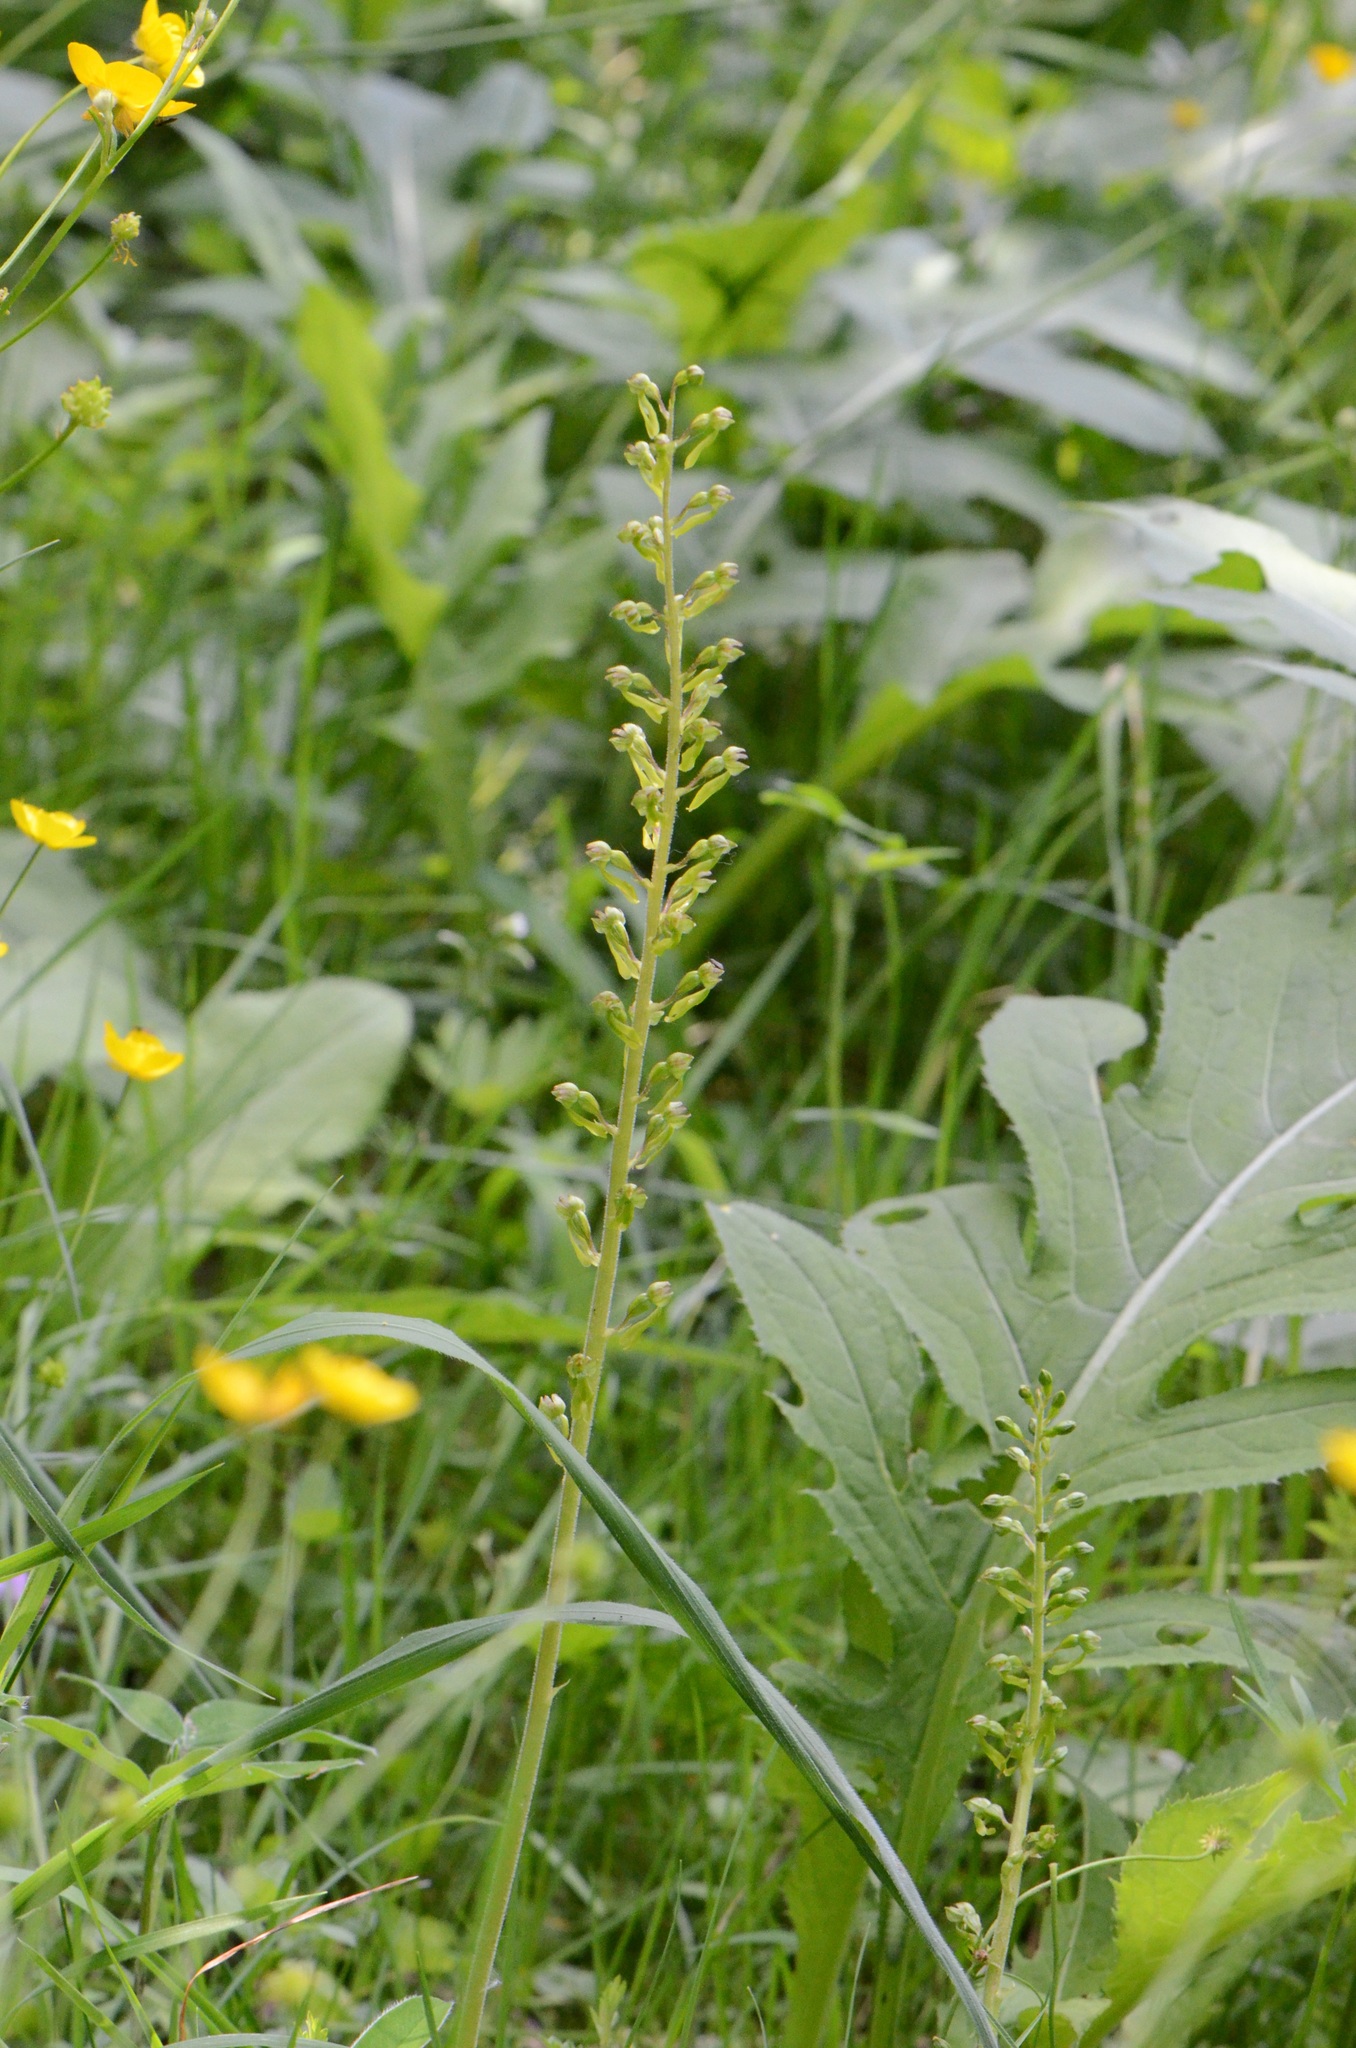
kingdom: Plantae
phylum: Tracheophyta
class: Liliopsida
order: Asparagales
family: Orchidaceae
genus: Neottia
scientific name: Neottia ovata
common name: Common twayblade
